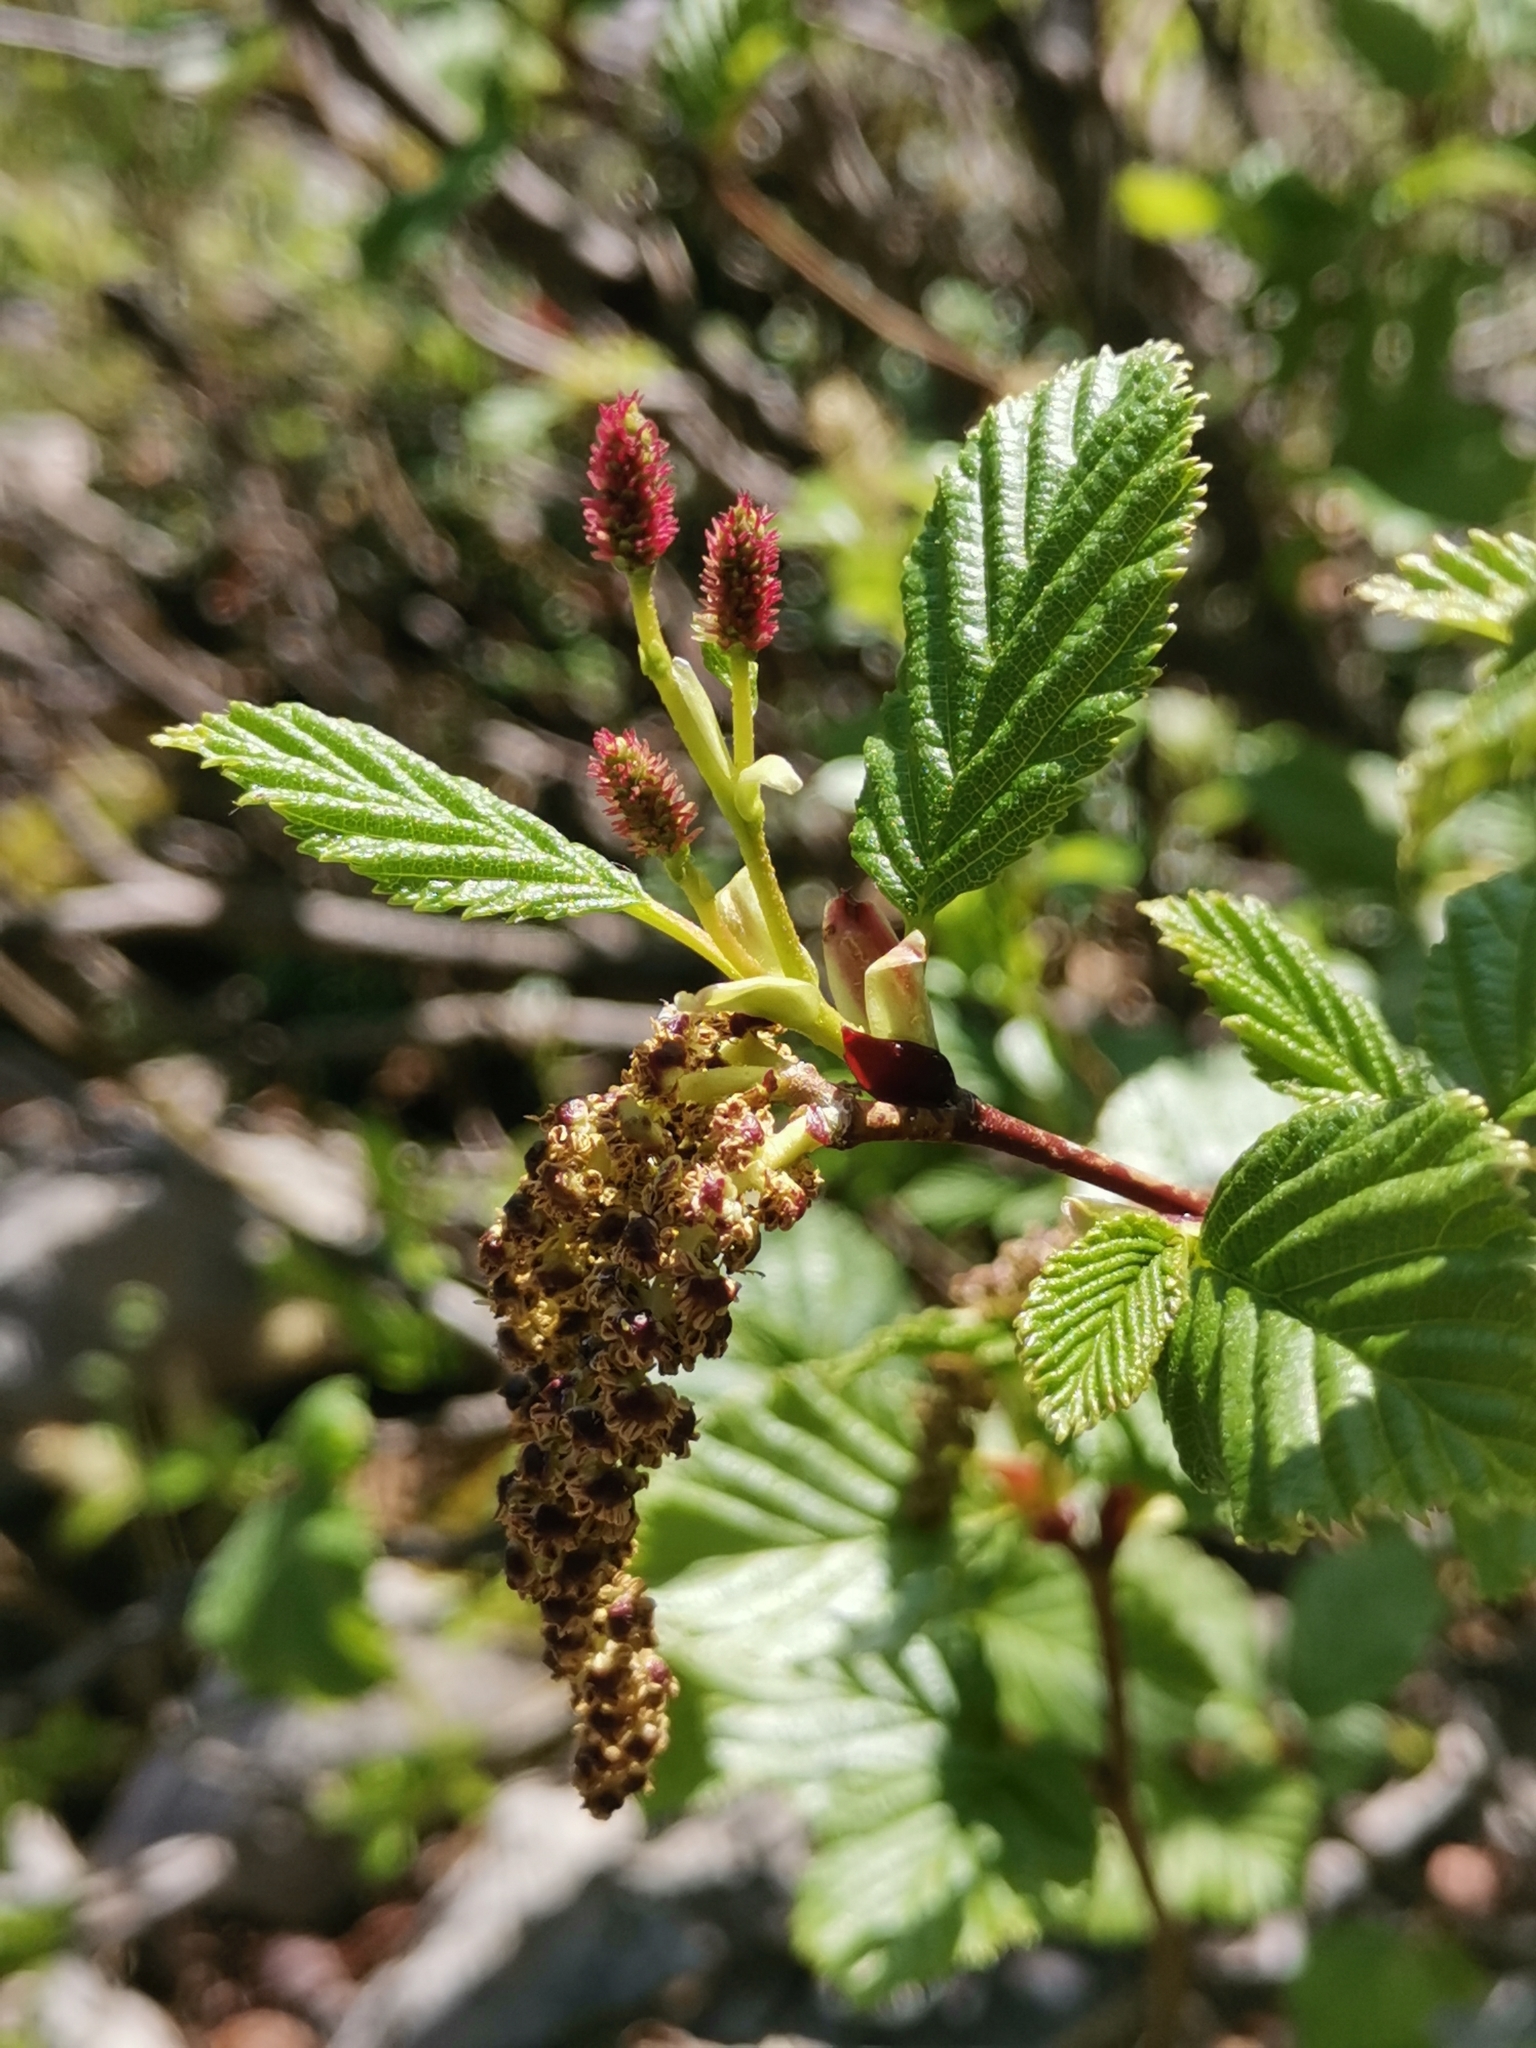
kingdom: Plantae
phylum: Tracheophyta
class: Magnoliopsida
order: Fagales
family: Betulaceae
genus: Alnus
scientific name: Alnus alnobetula
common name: Green alder
